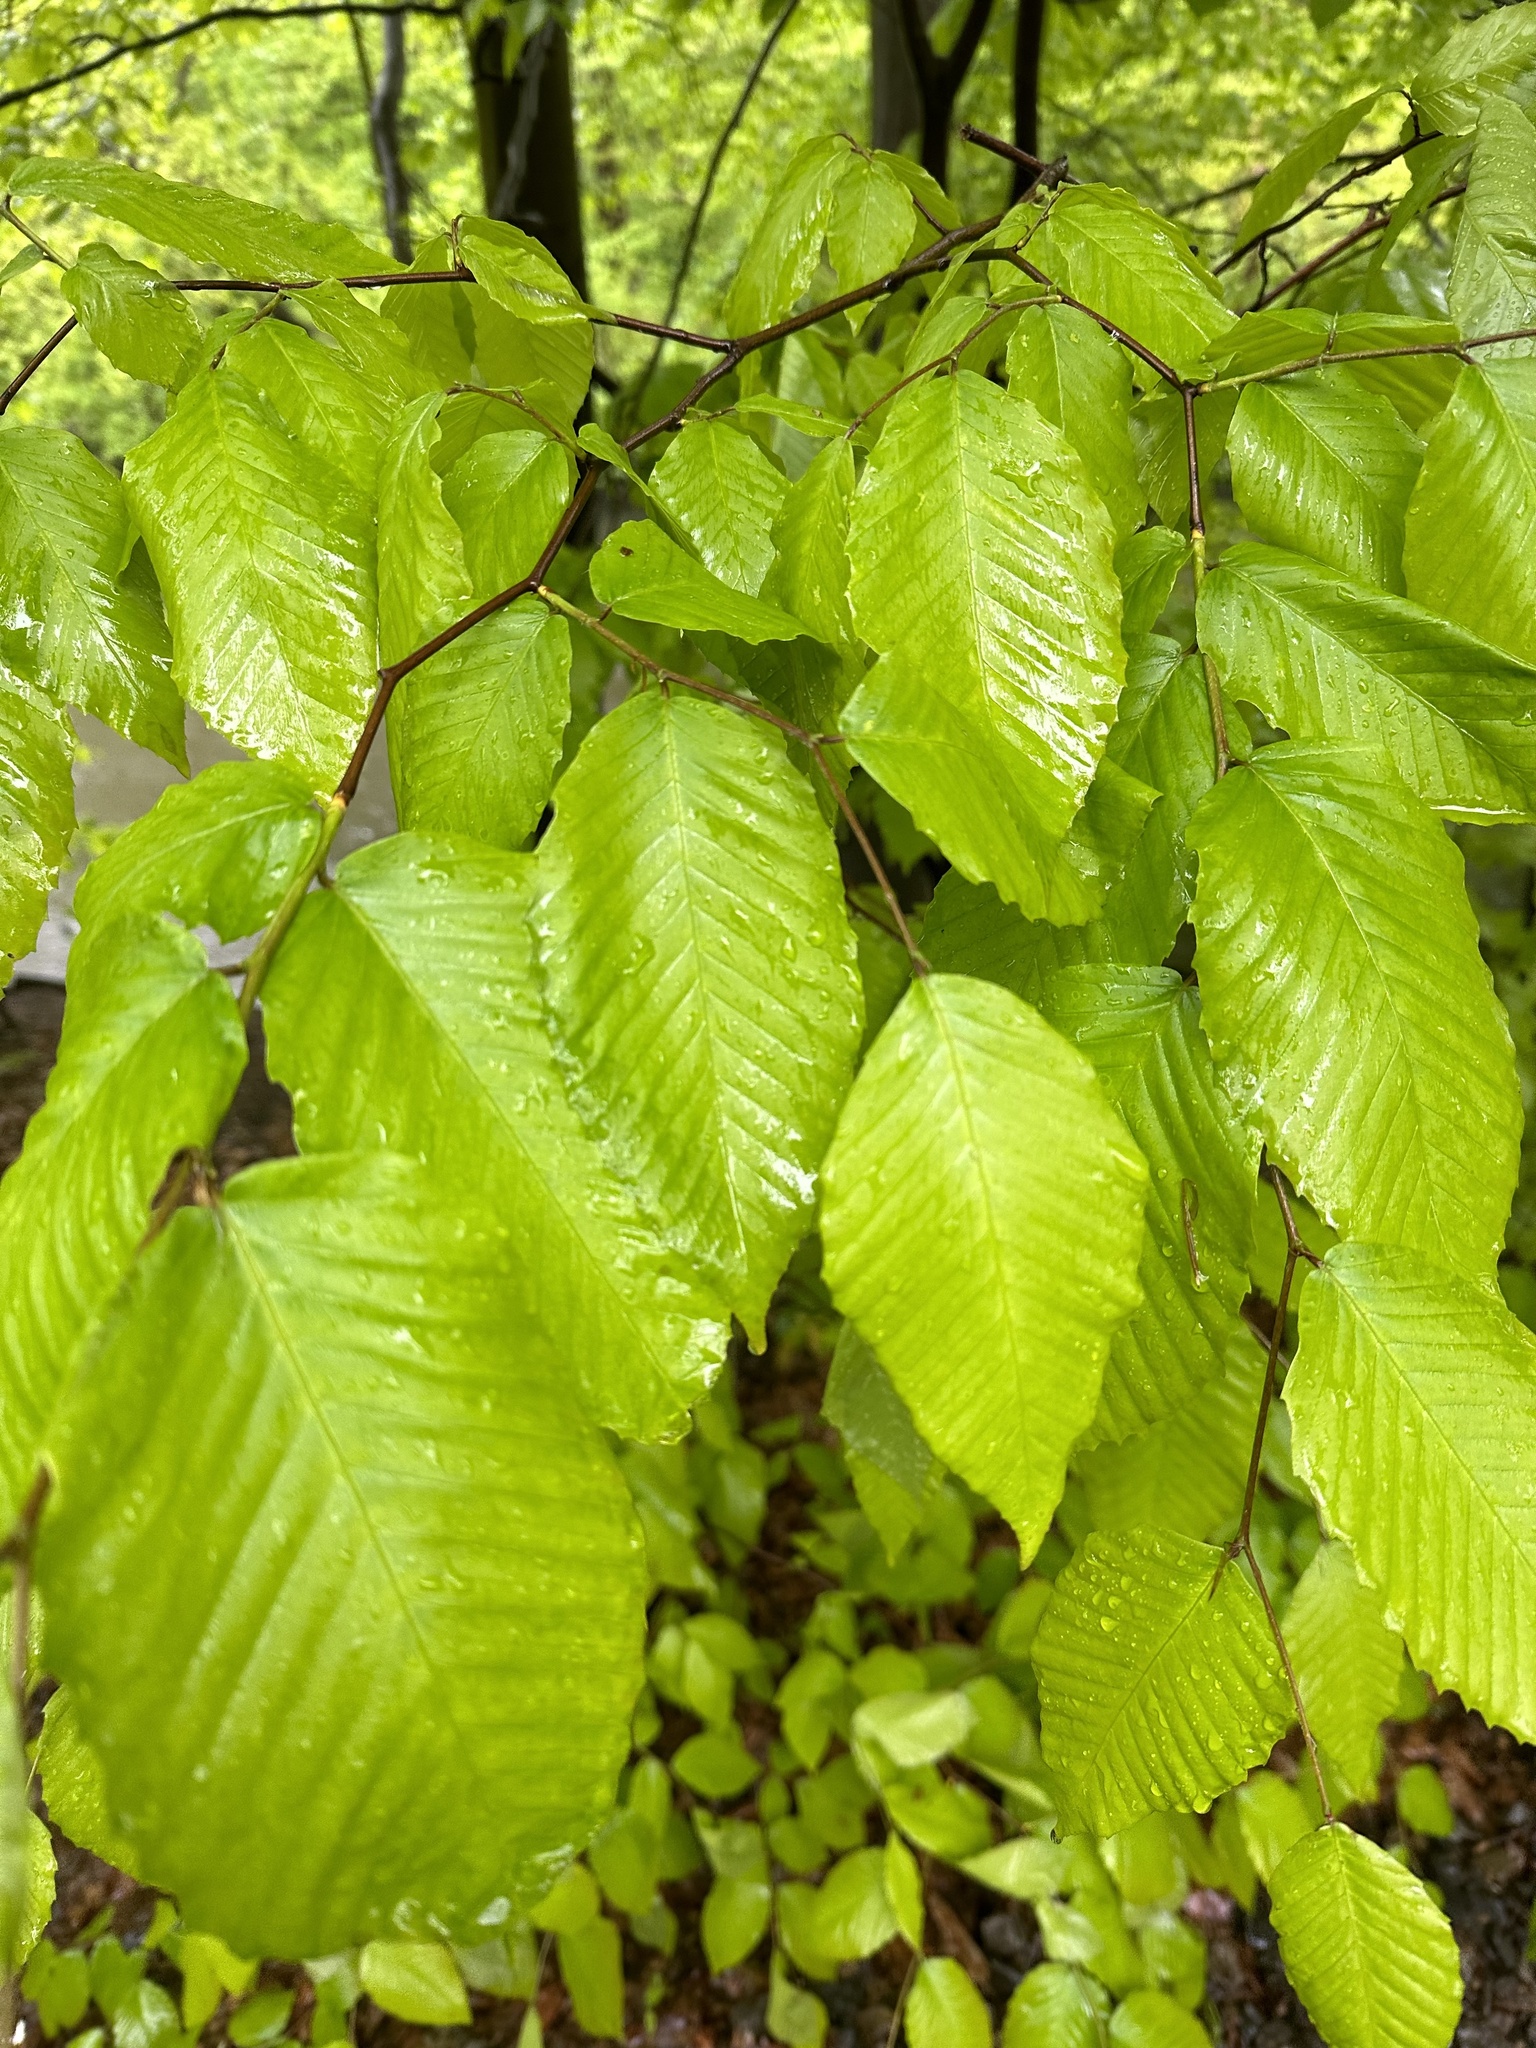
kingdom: Plantae
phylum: Tracheophyta
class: Magnoliopsida
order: Fagales
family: Fagaceae
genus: Fagus
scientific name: Fagus grandifolia
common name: American beech
